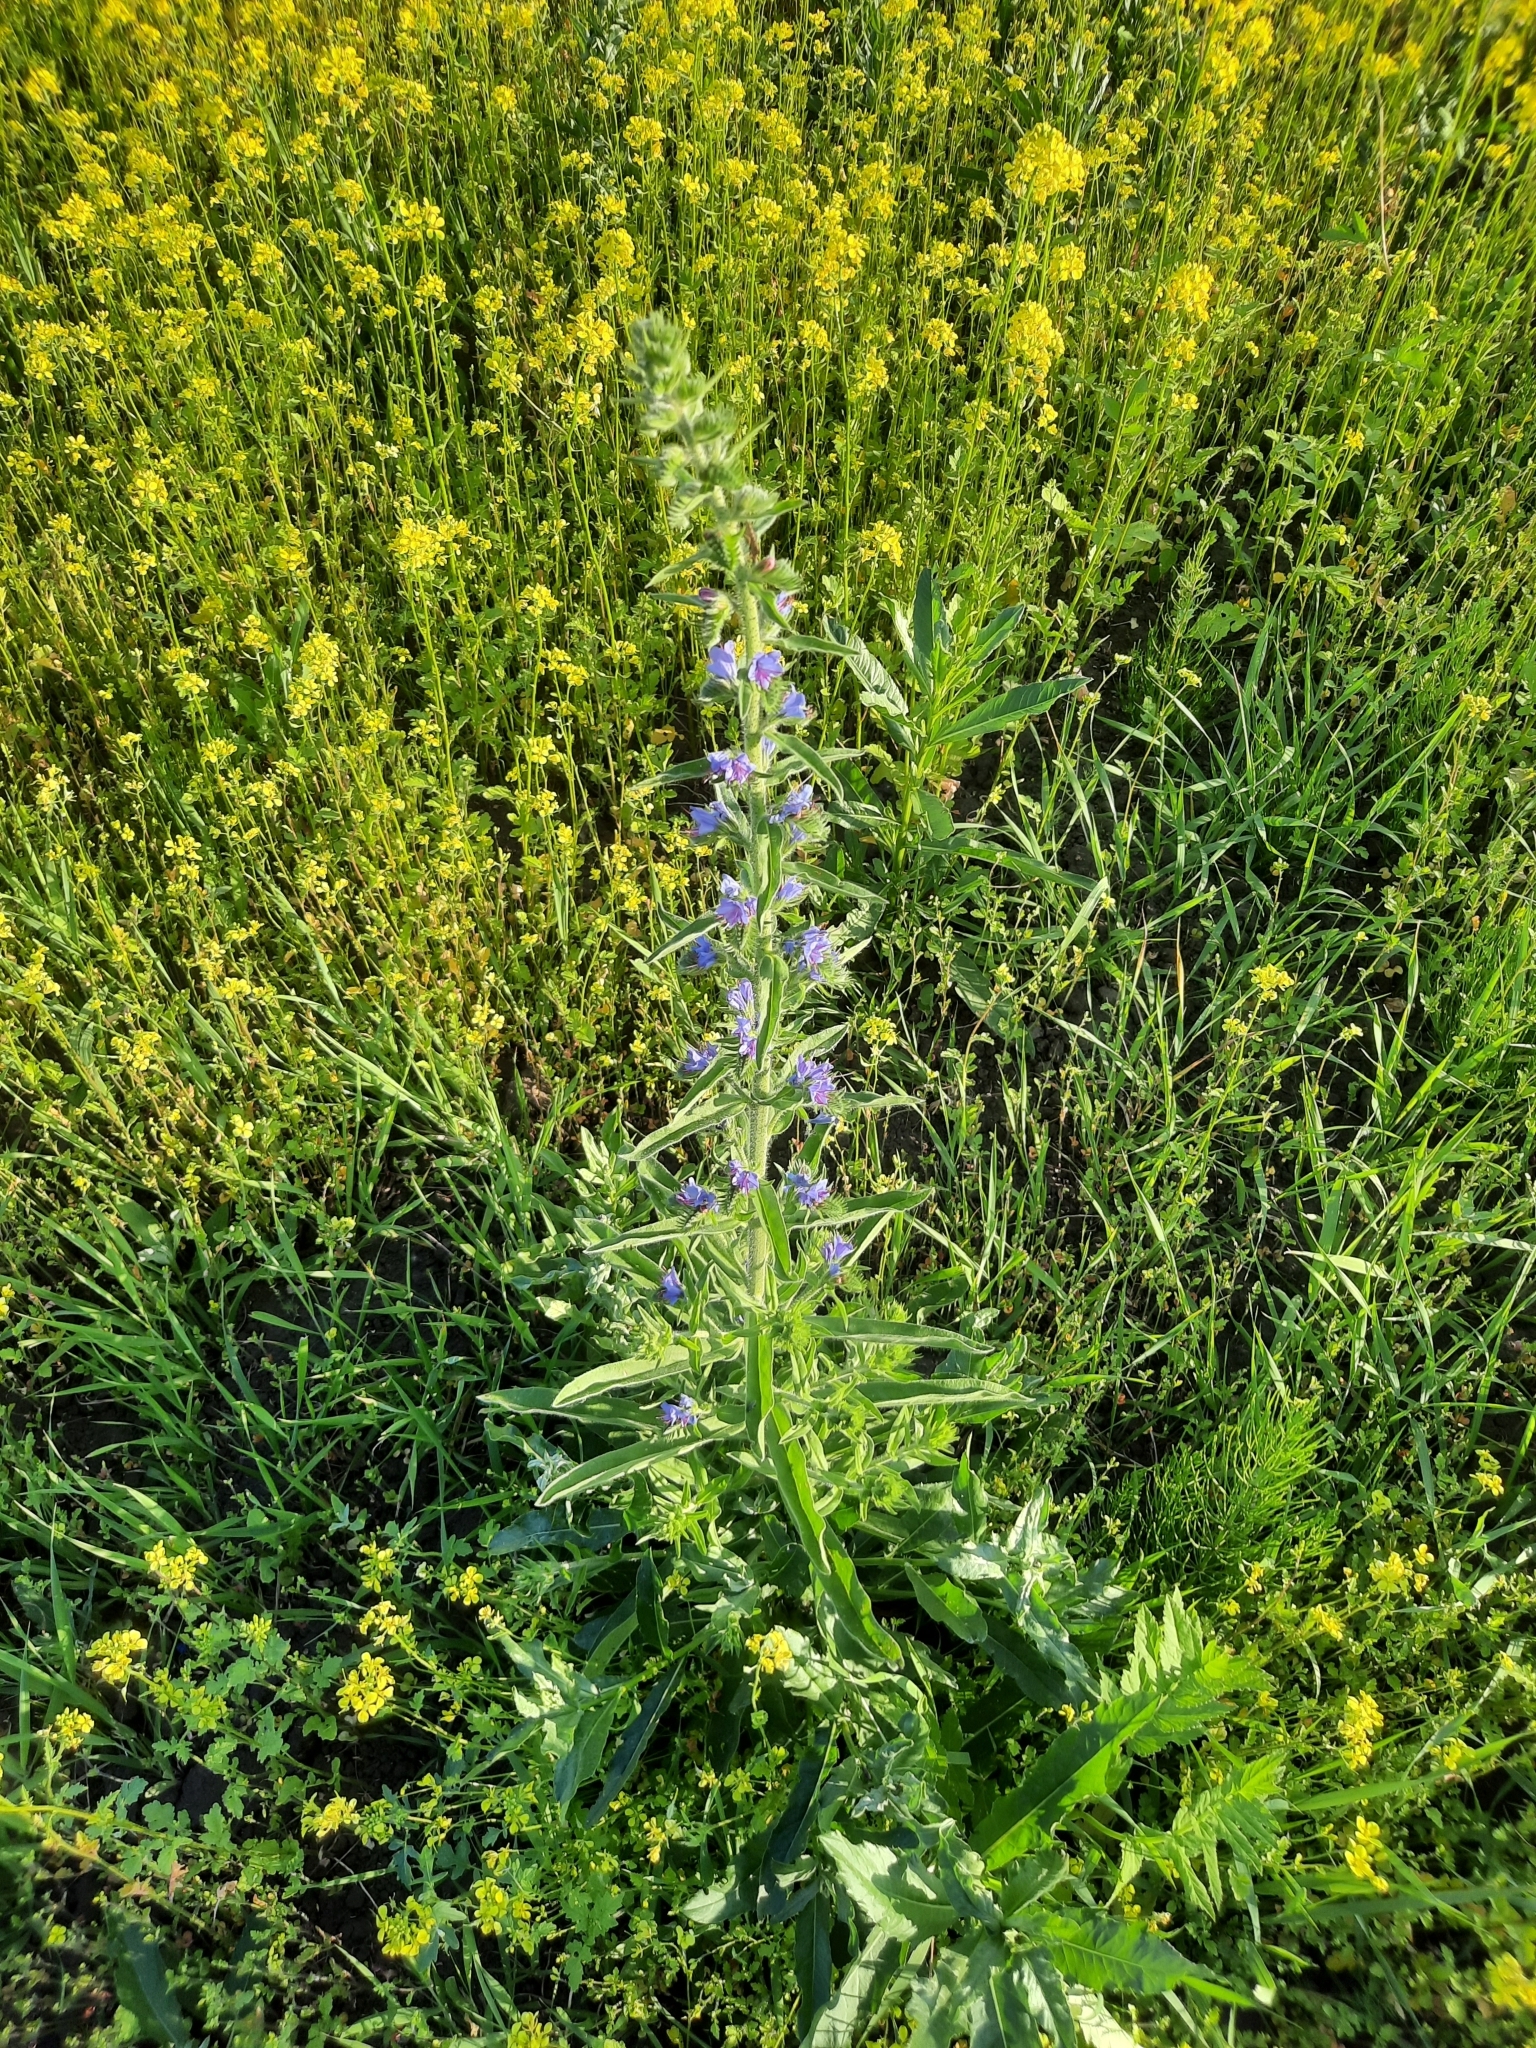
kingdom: Plantae
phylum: Tracheophyta
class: Magnoliopsida
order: Boraginales
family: Boraginaceae
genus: Echium
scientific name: Echium vulgare
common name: Common viper's bugloss
